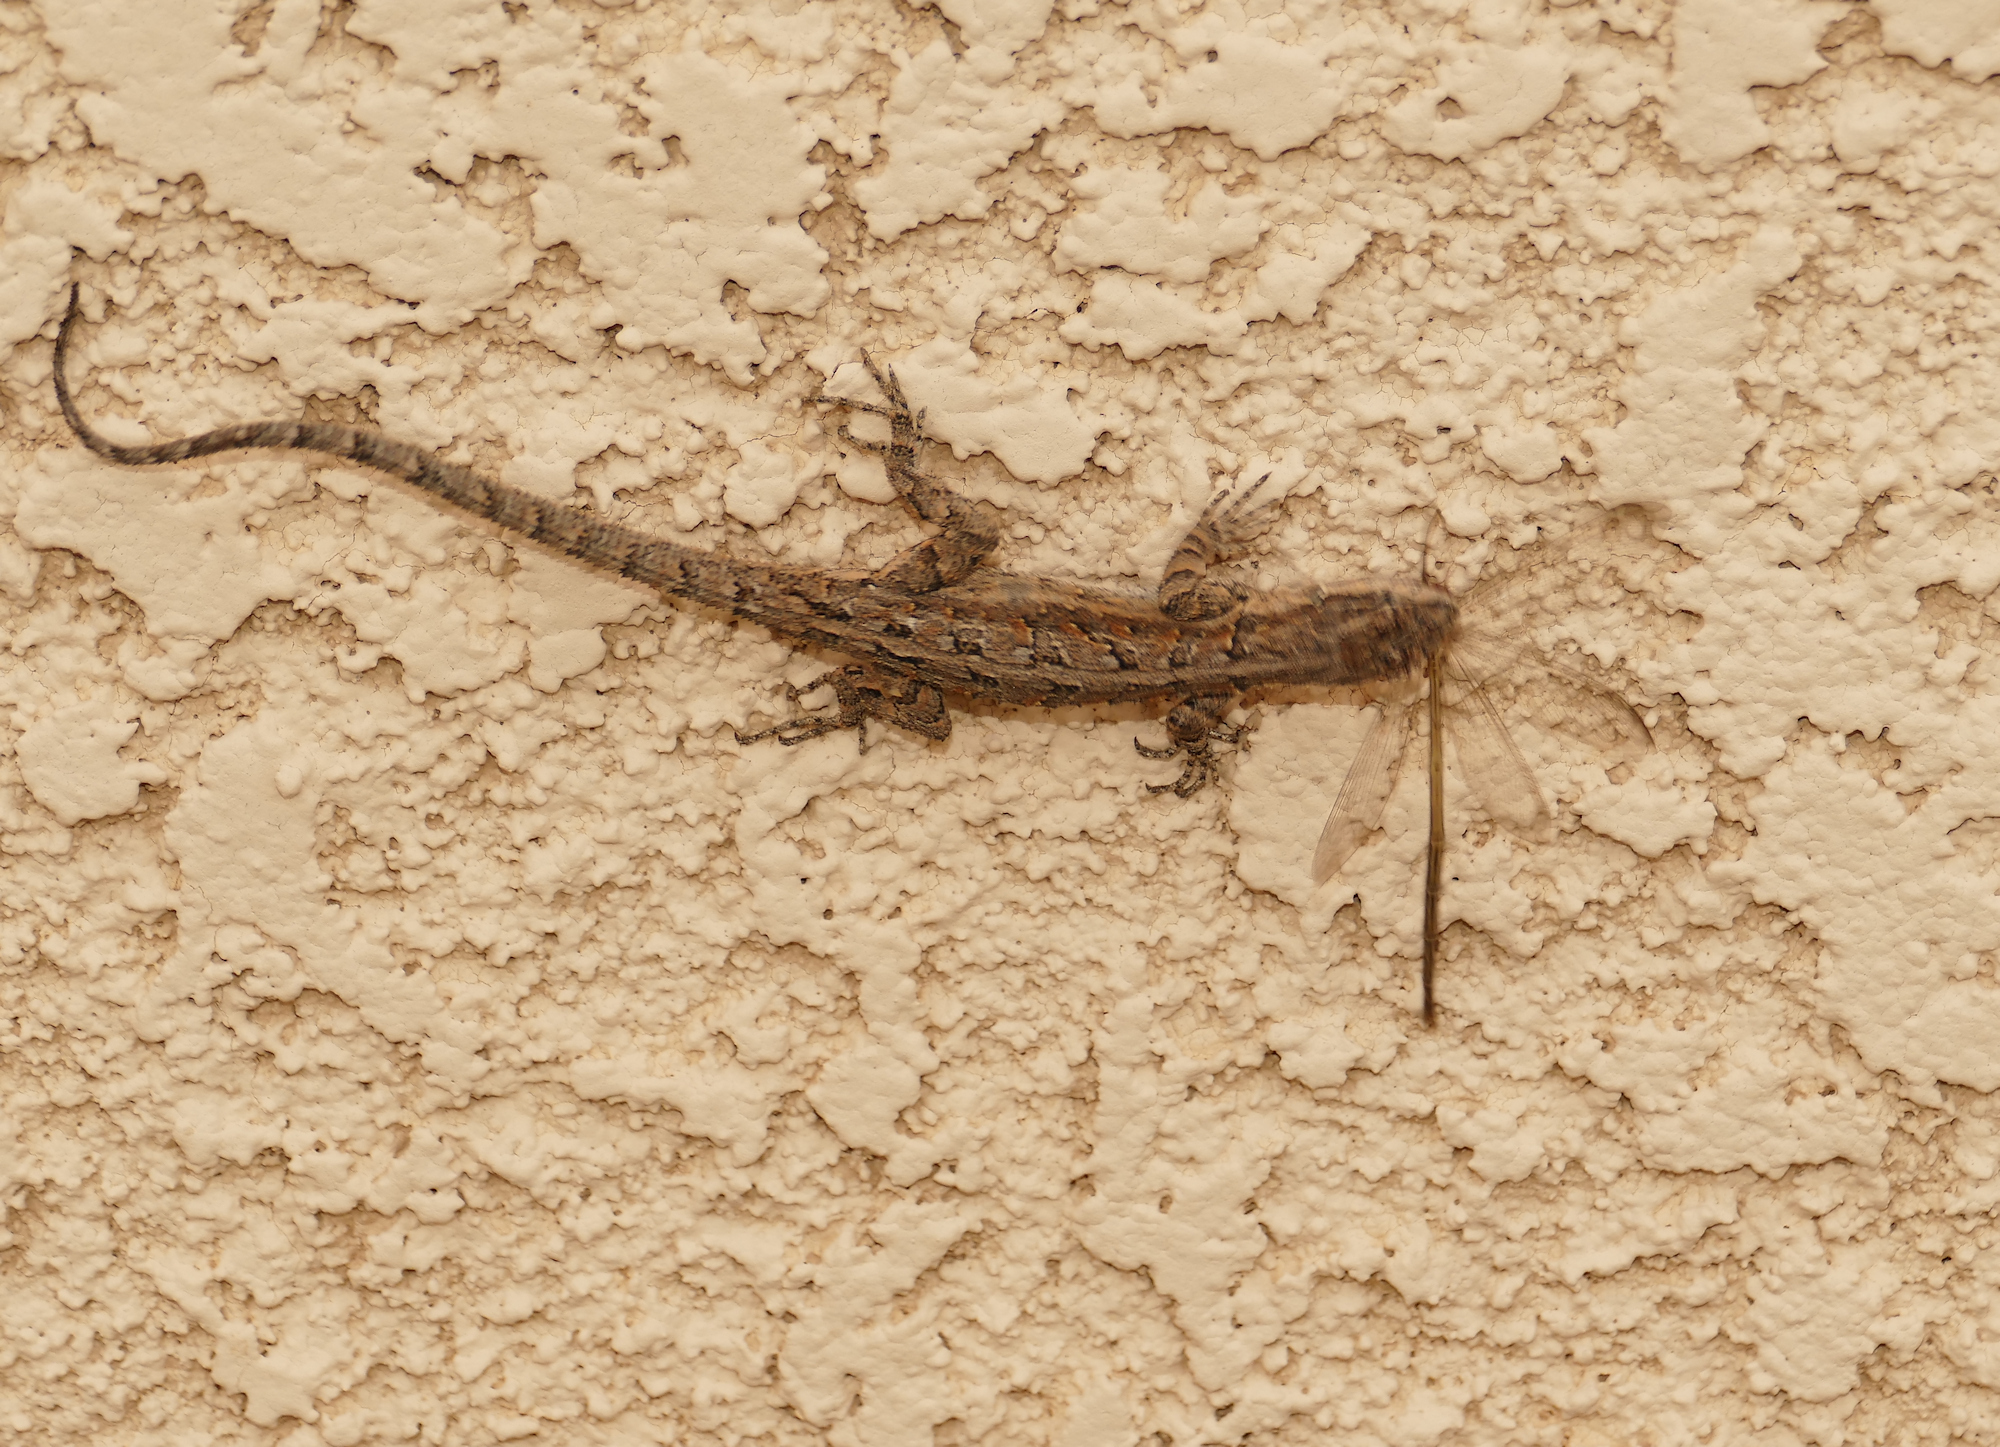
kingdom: Animalia
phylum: Chordata
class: Squamata
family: Phrynosomatidae
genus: Urosaurus
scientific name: Urosaurus ornatus
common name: Ornate tree lizard
